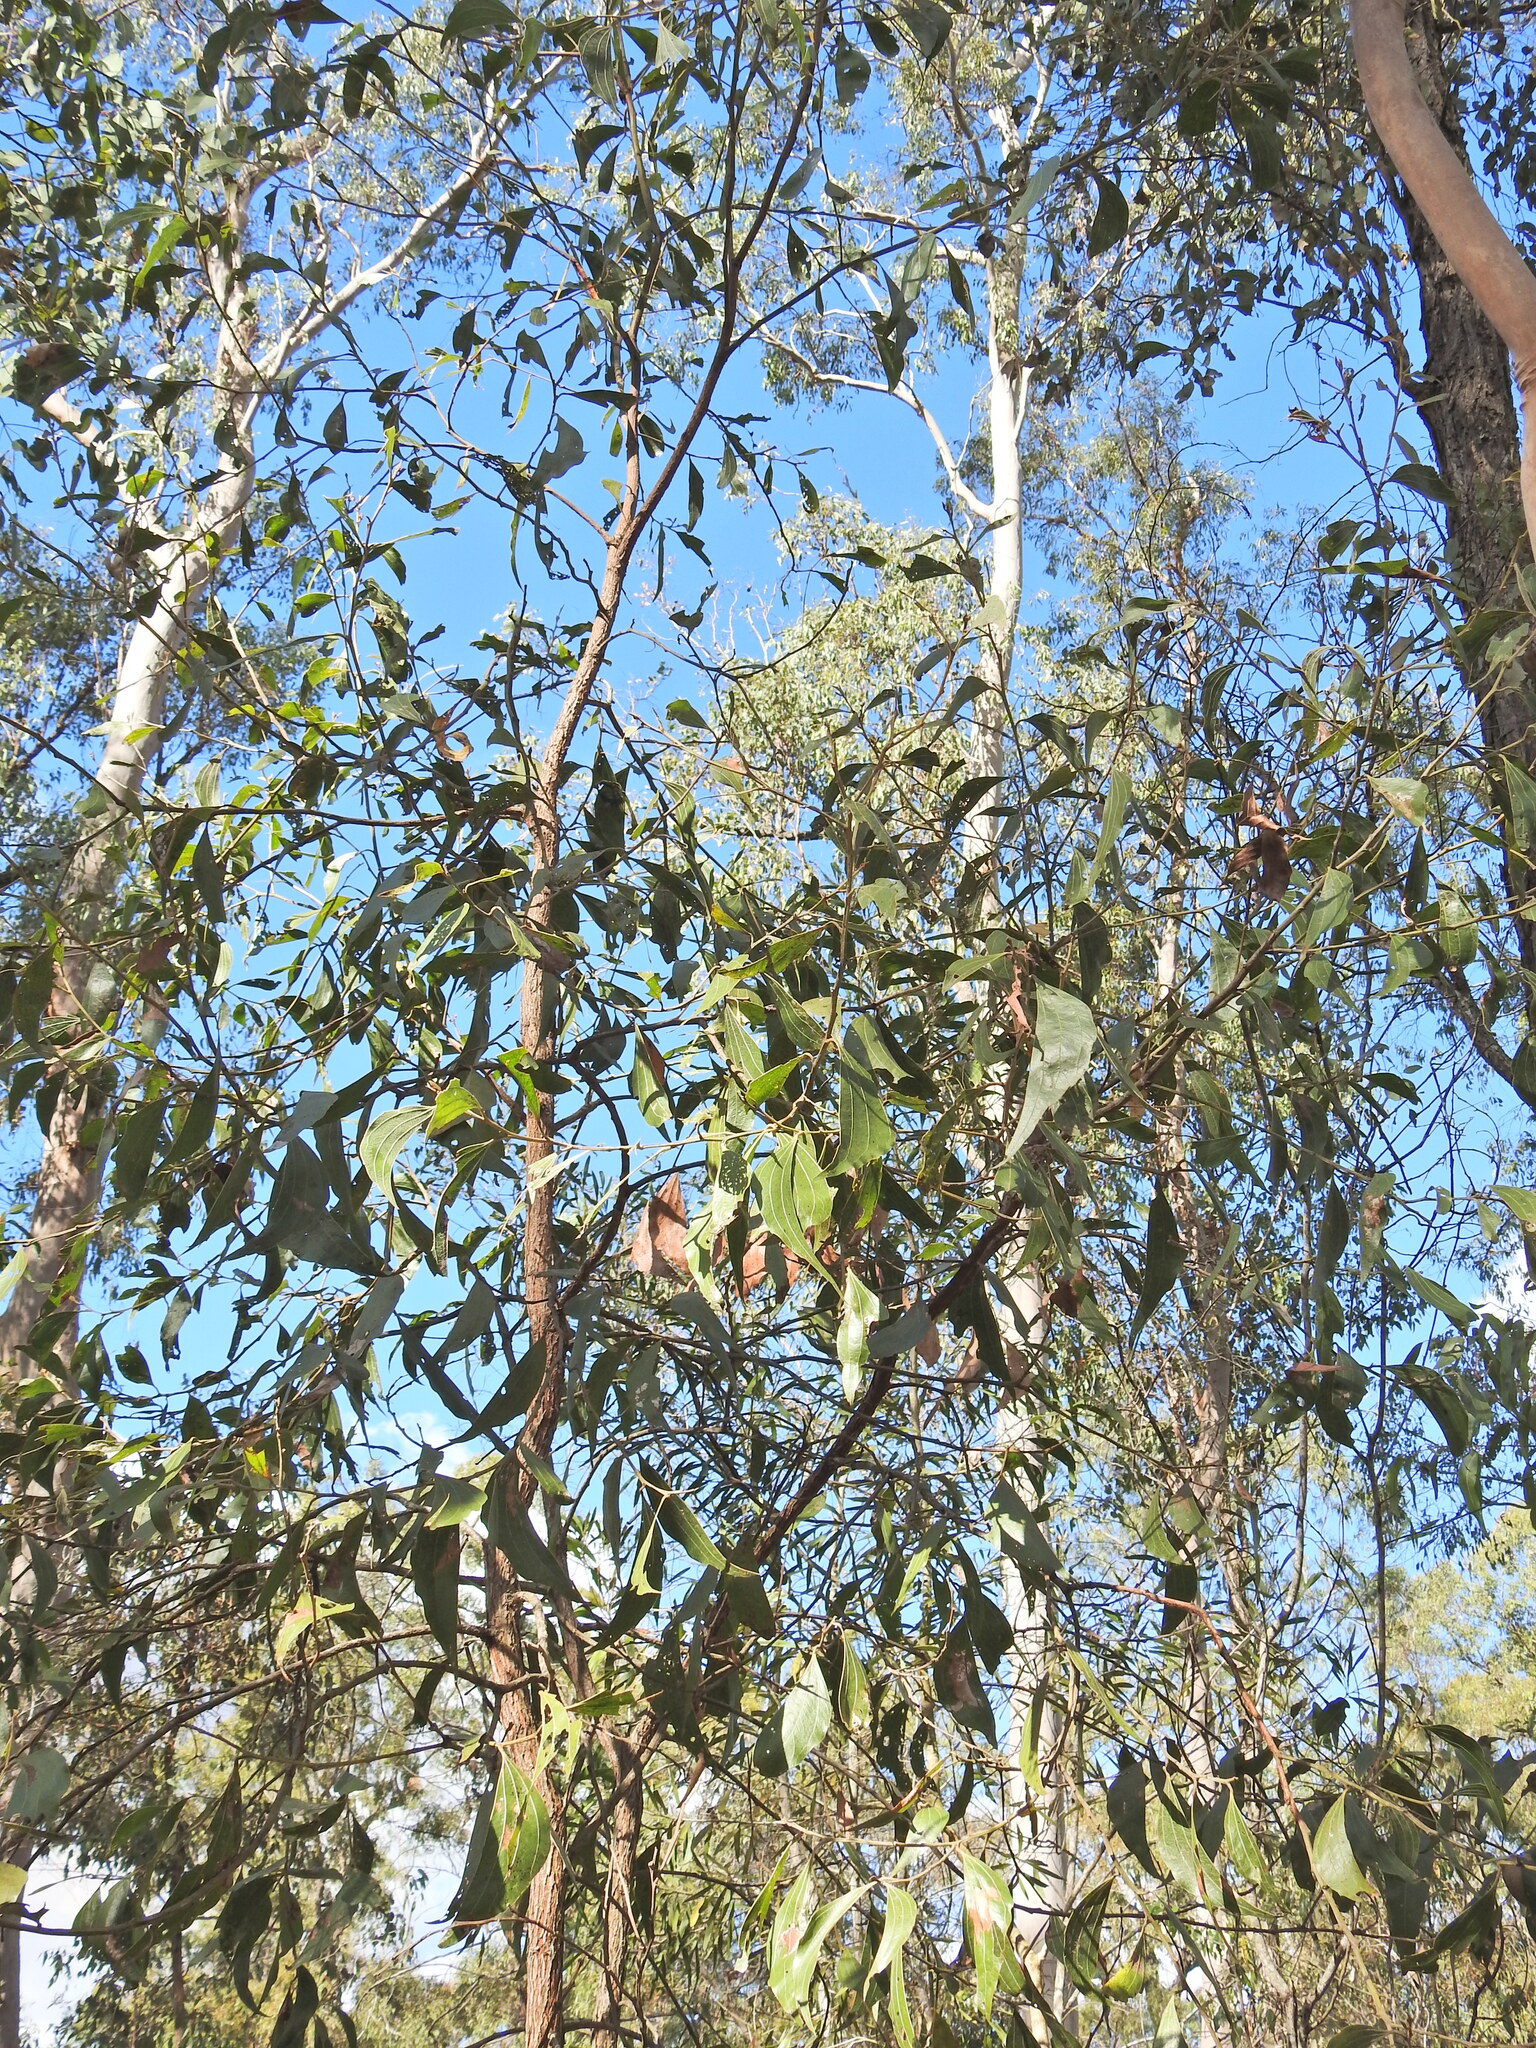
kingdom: Plantae
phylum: Tracheophyta
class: Magnoliopsida
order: Fabales
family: Fabaceae
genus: Acacia
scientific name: Acacia flavescens
